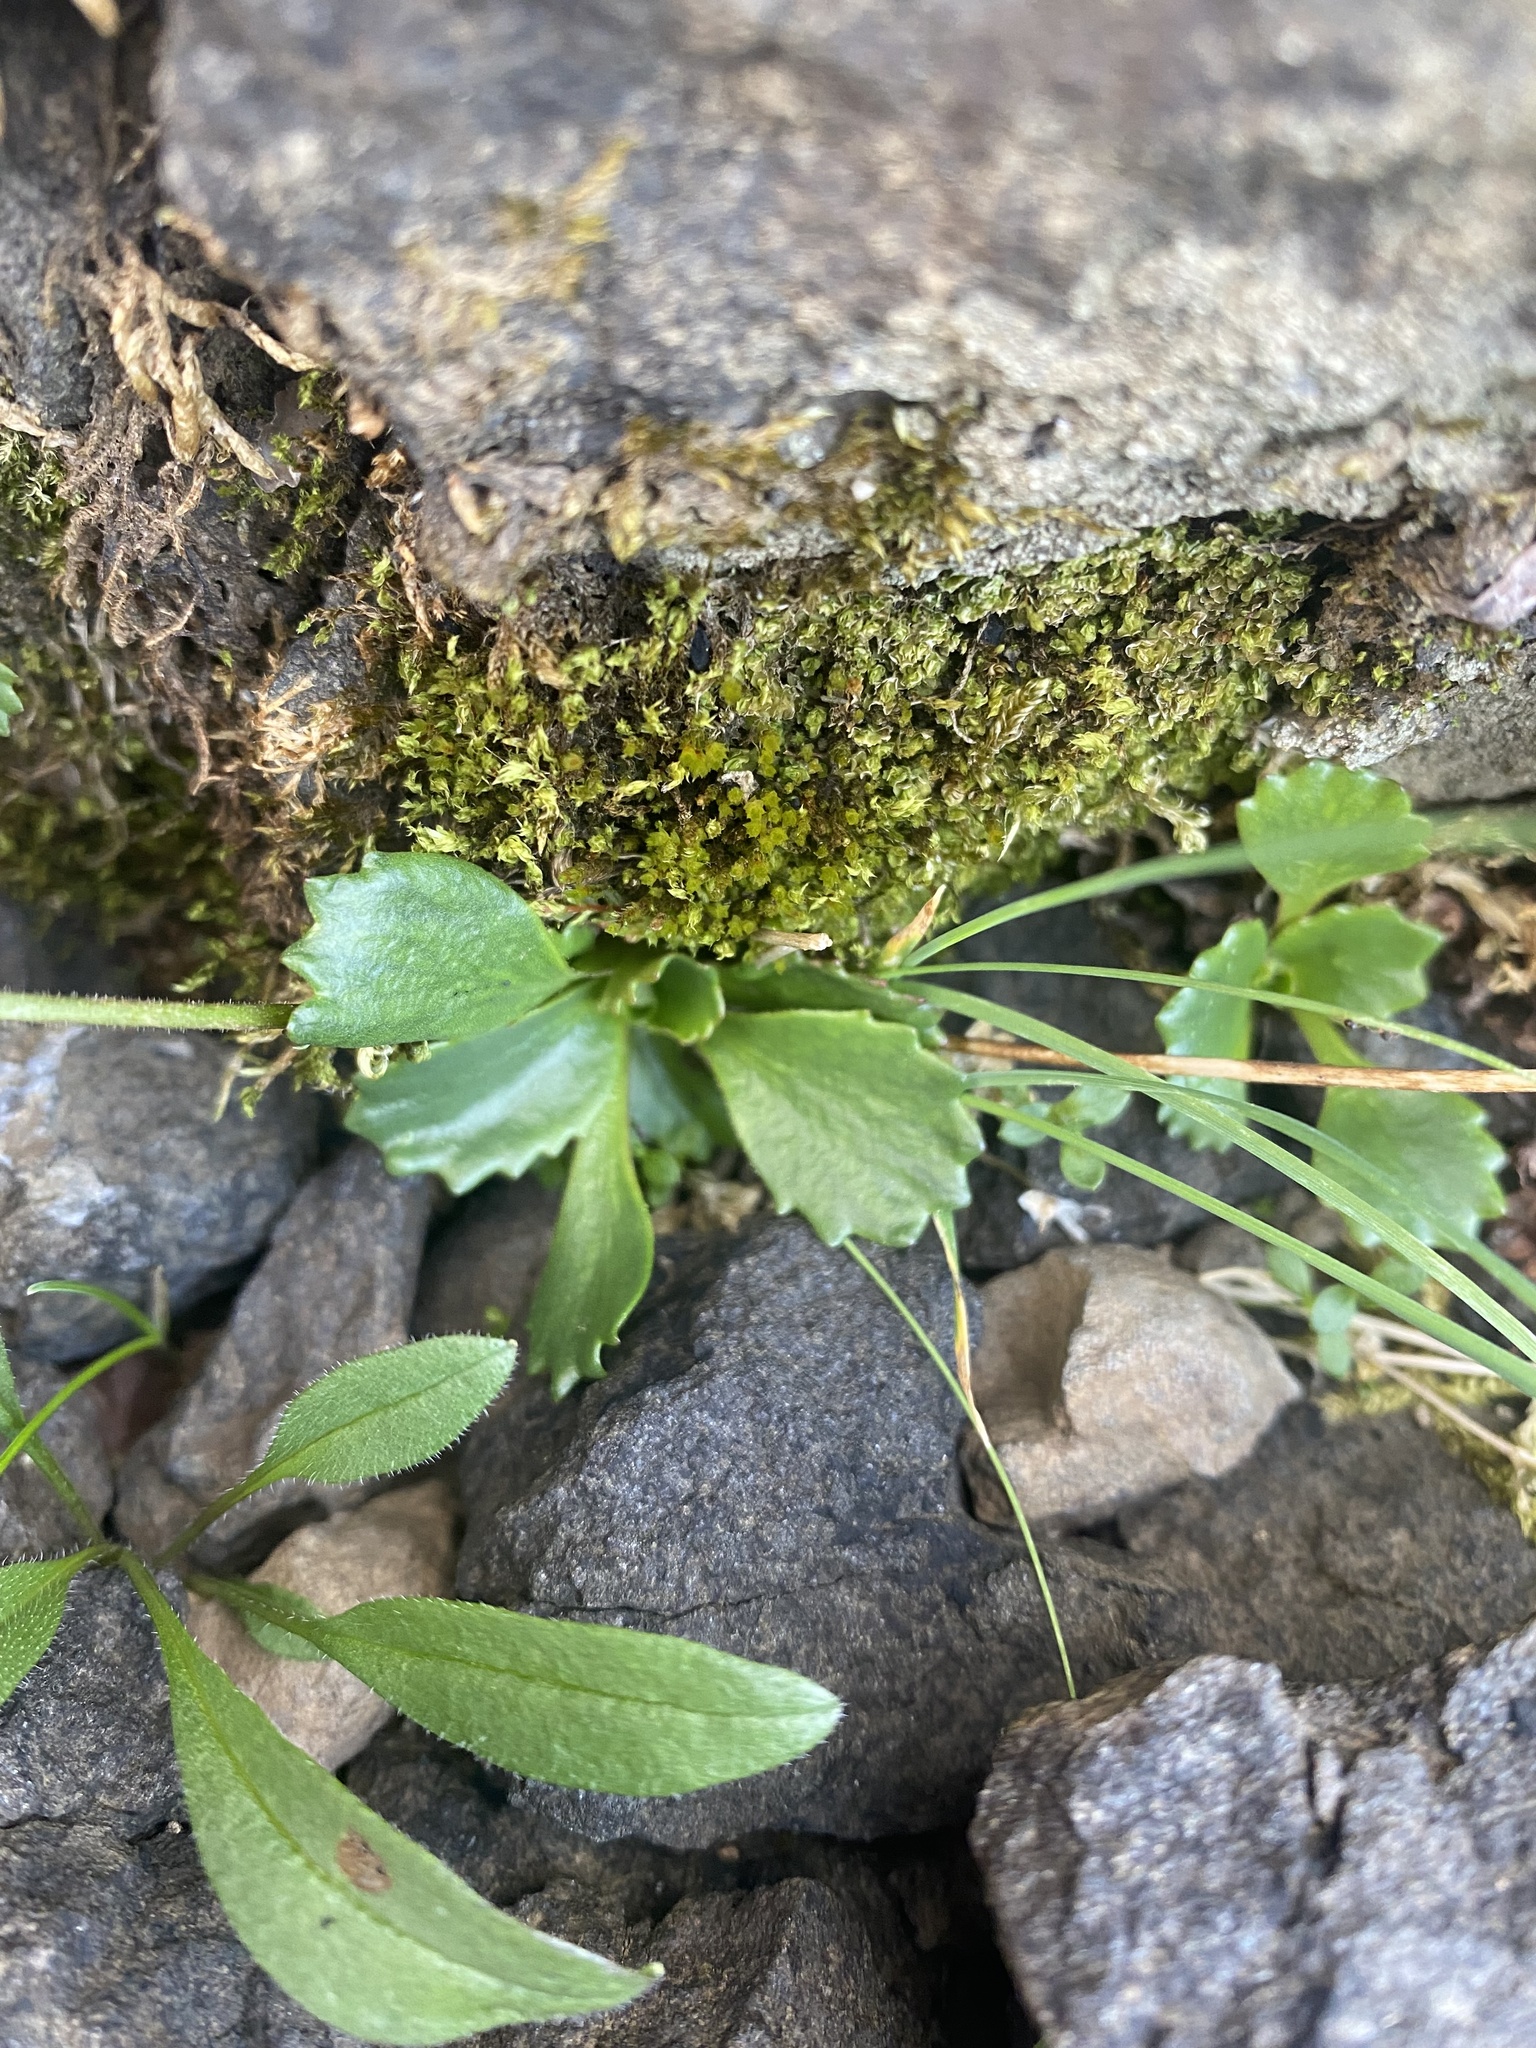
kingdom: Plantae
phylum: Tracheophyta
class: Magnoliopsida
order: Saxifragales
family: Saxifragaceae
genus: Micranthes
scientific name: Micranthes nivalis
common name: Alpine saxifrage
